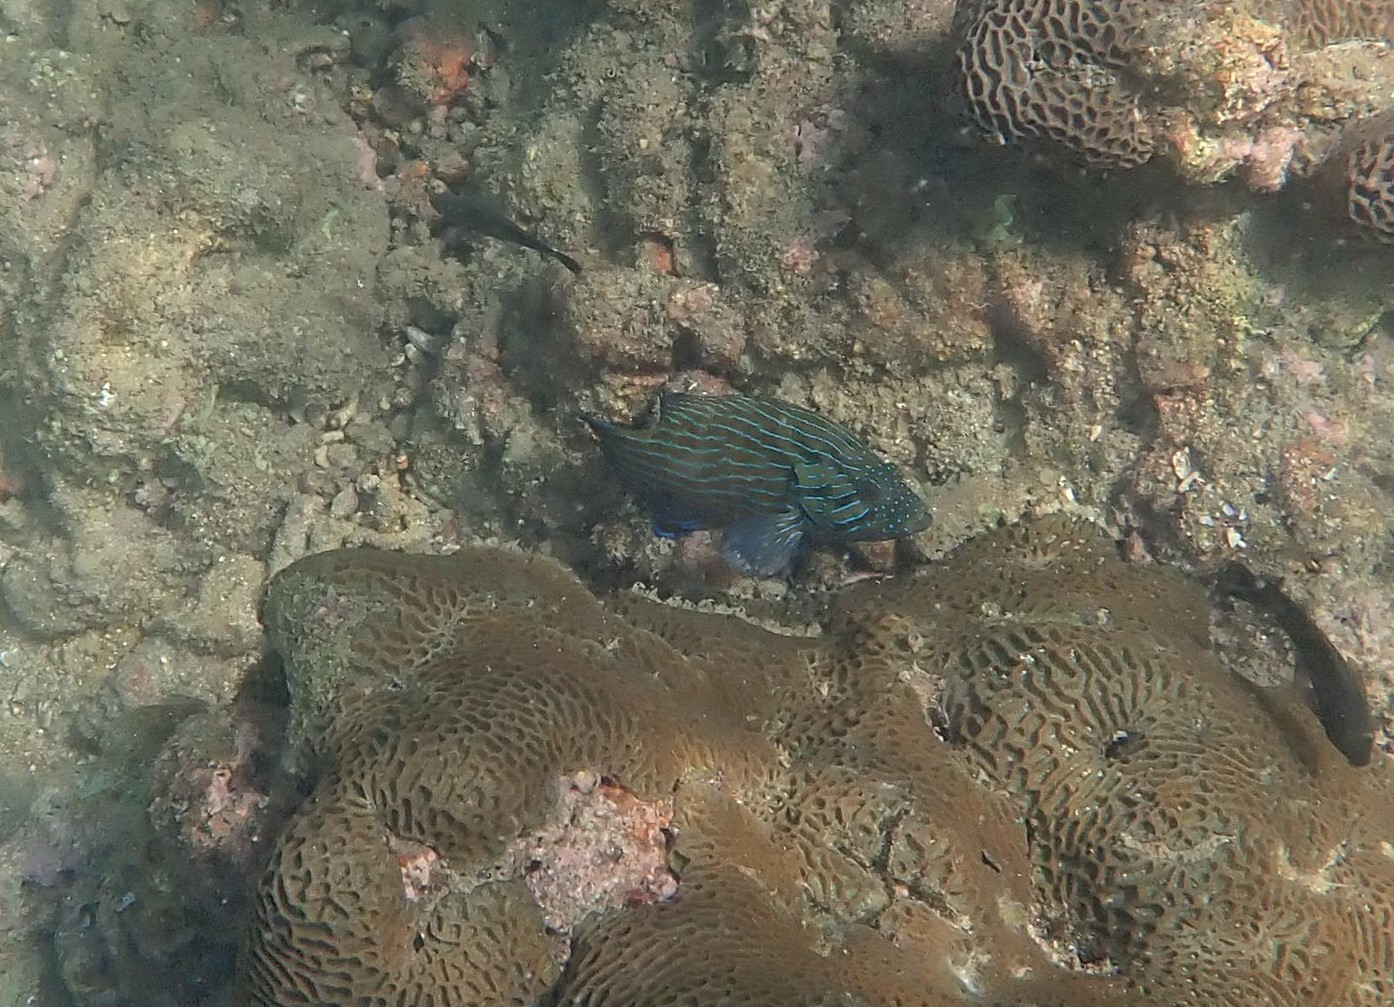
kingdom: Animalia
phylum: Chordata
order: Perciformes
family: Serranidae
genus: Cephalopholis
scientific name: Cephalopholis formosa
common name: Bluelined hind
